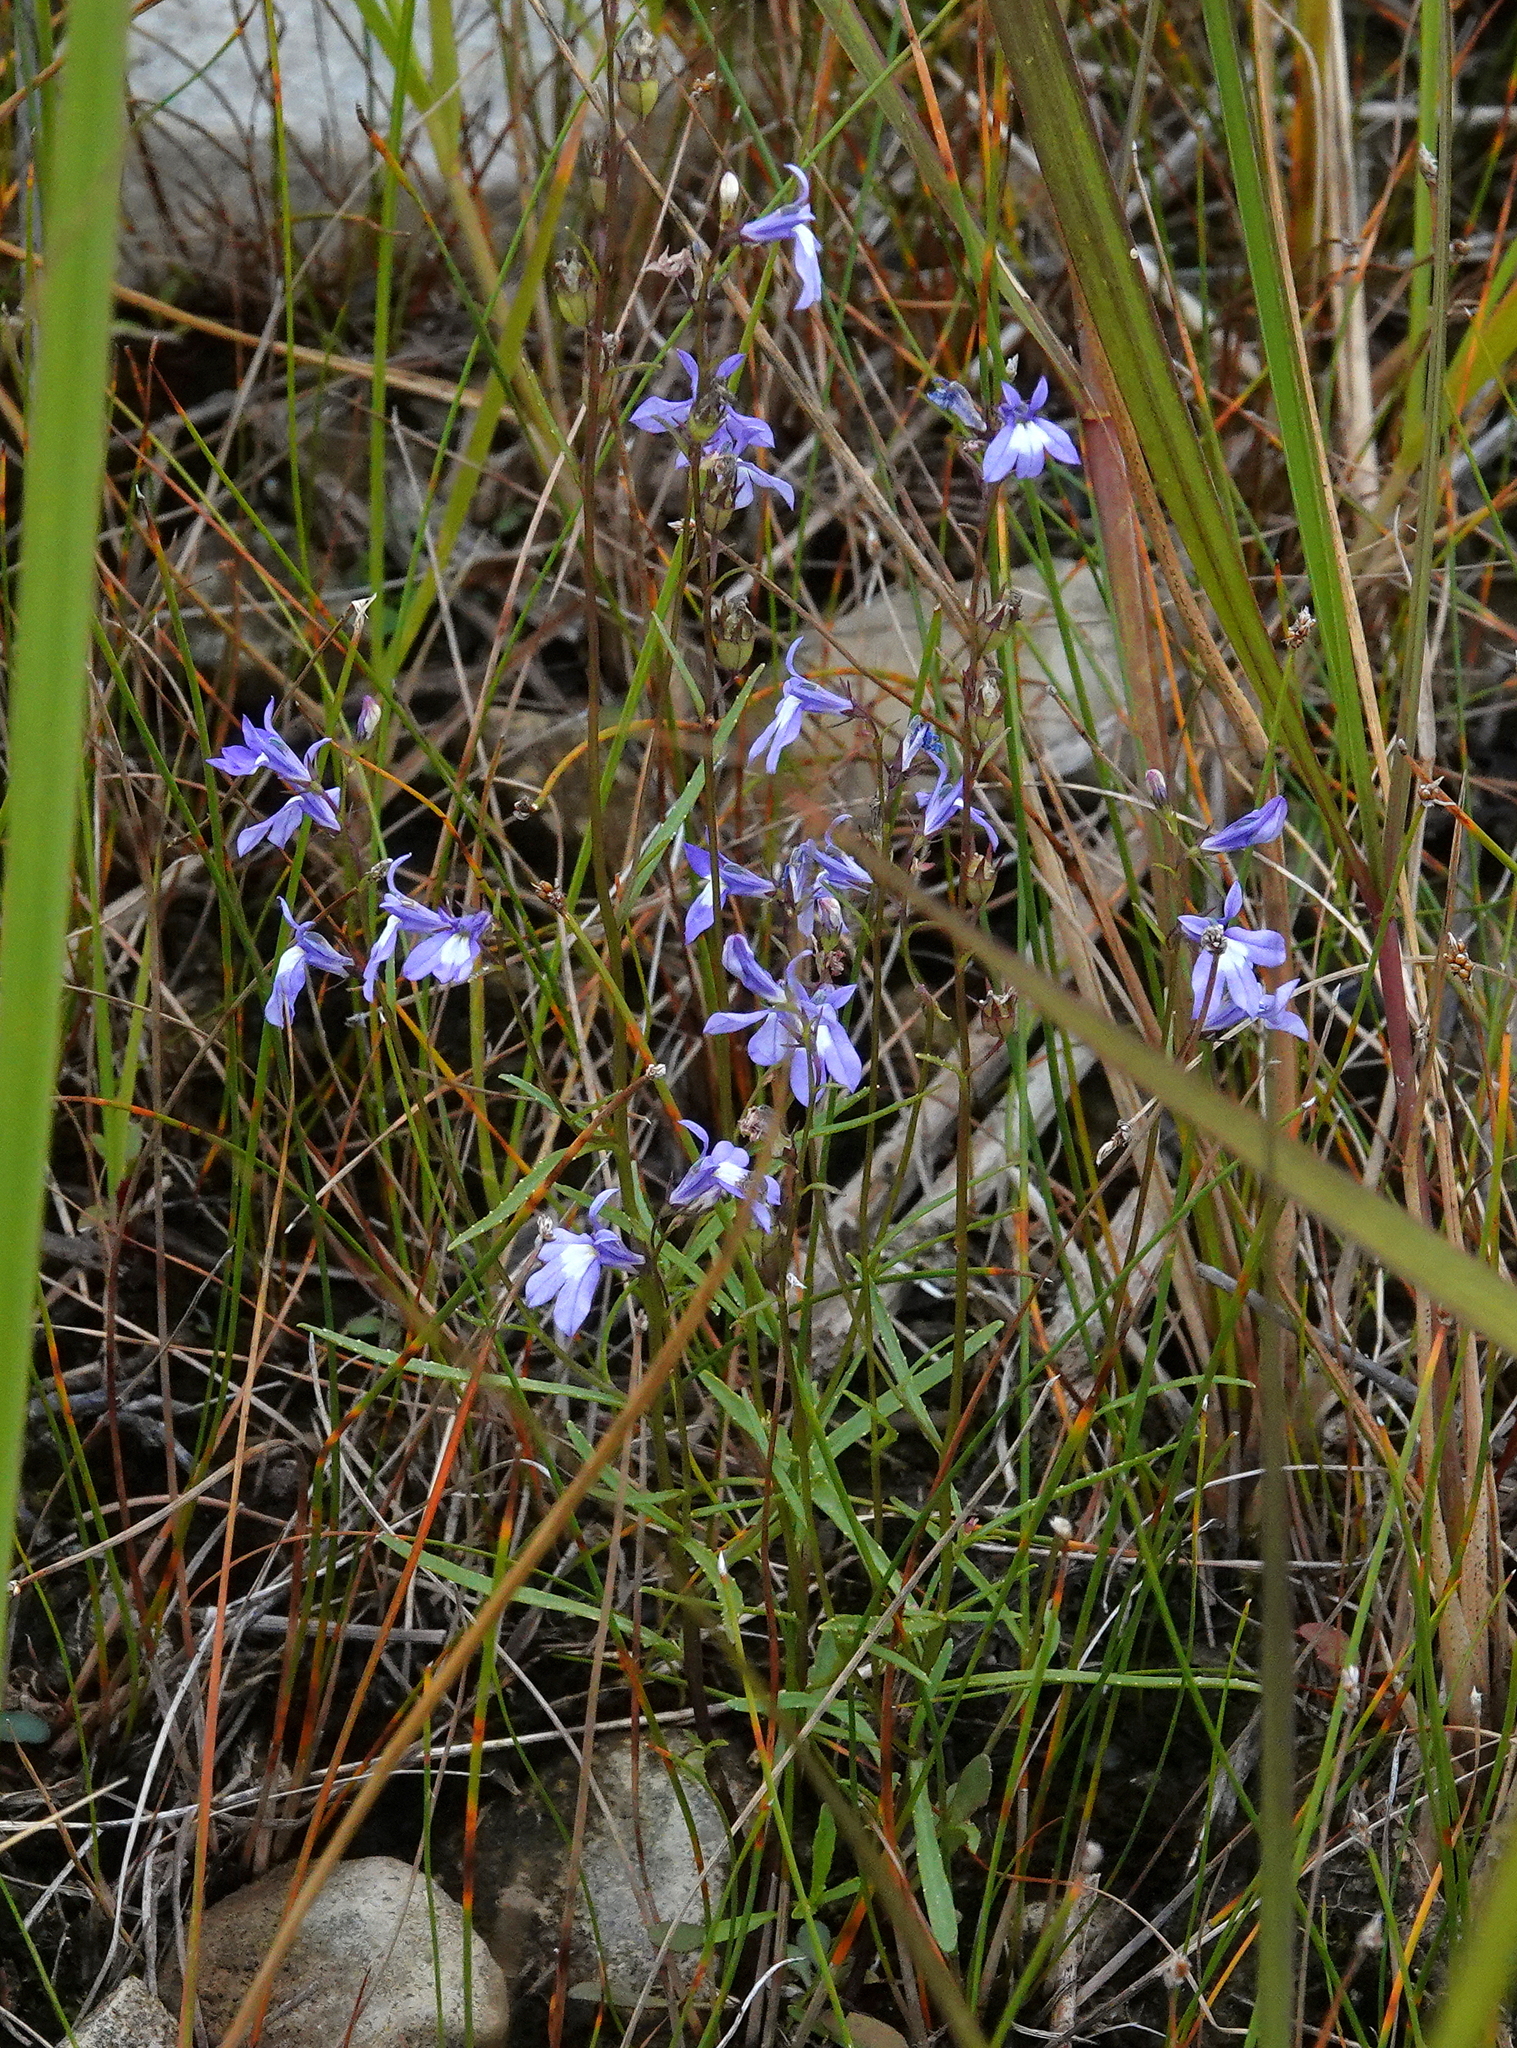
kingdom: Plantae
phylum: Tracheophyta
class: Magnoliopsida
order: Asterales
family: Campanulaceae
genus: Lobelia
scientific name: Lobelia kalmii
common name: Kalm's lobelia
